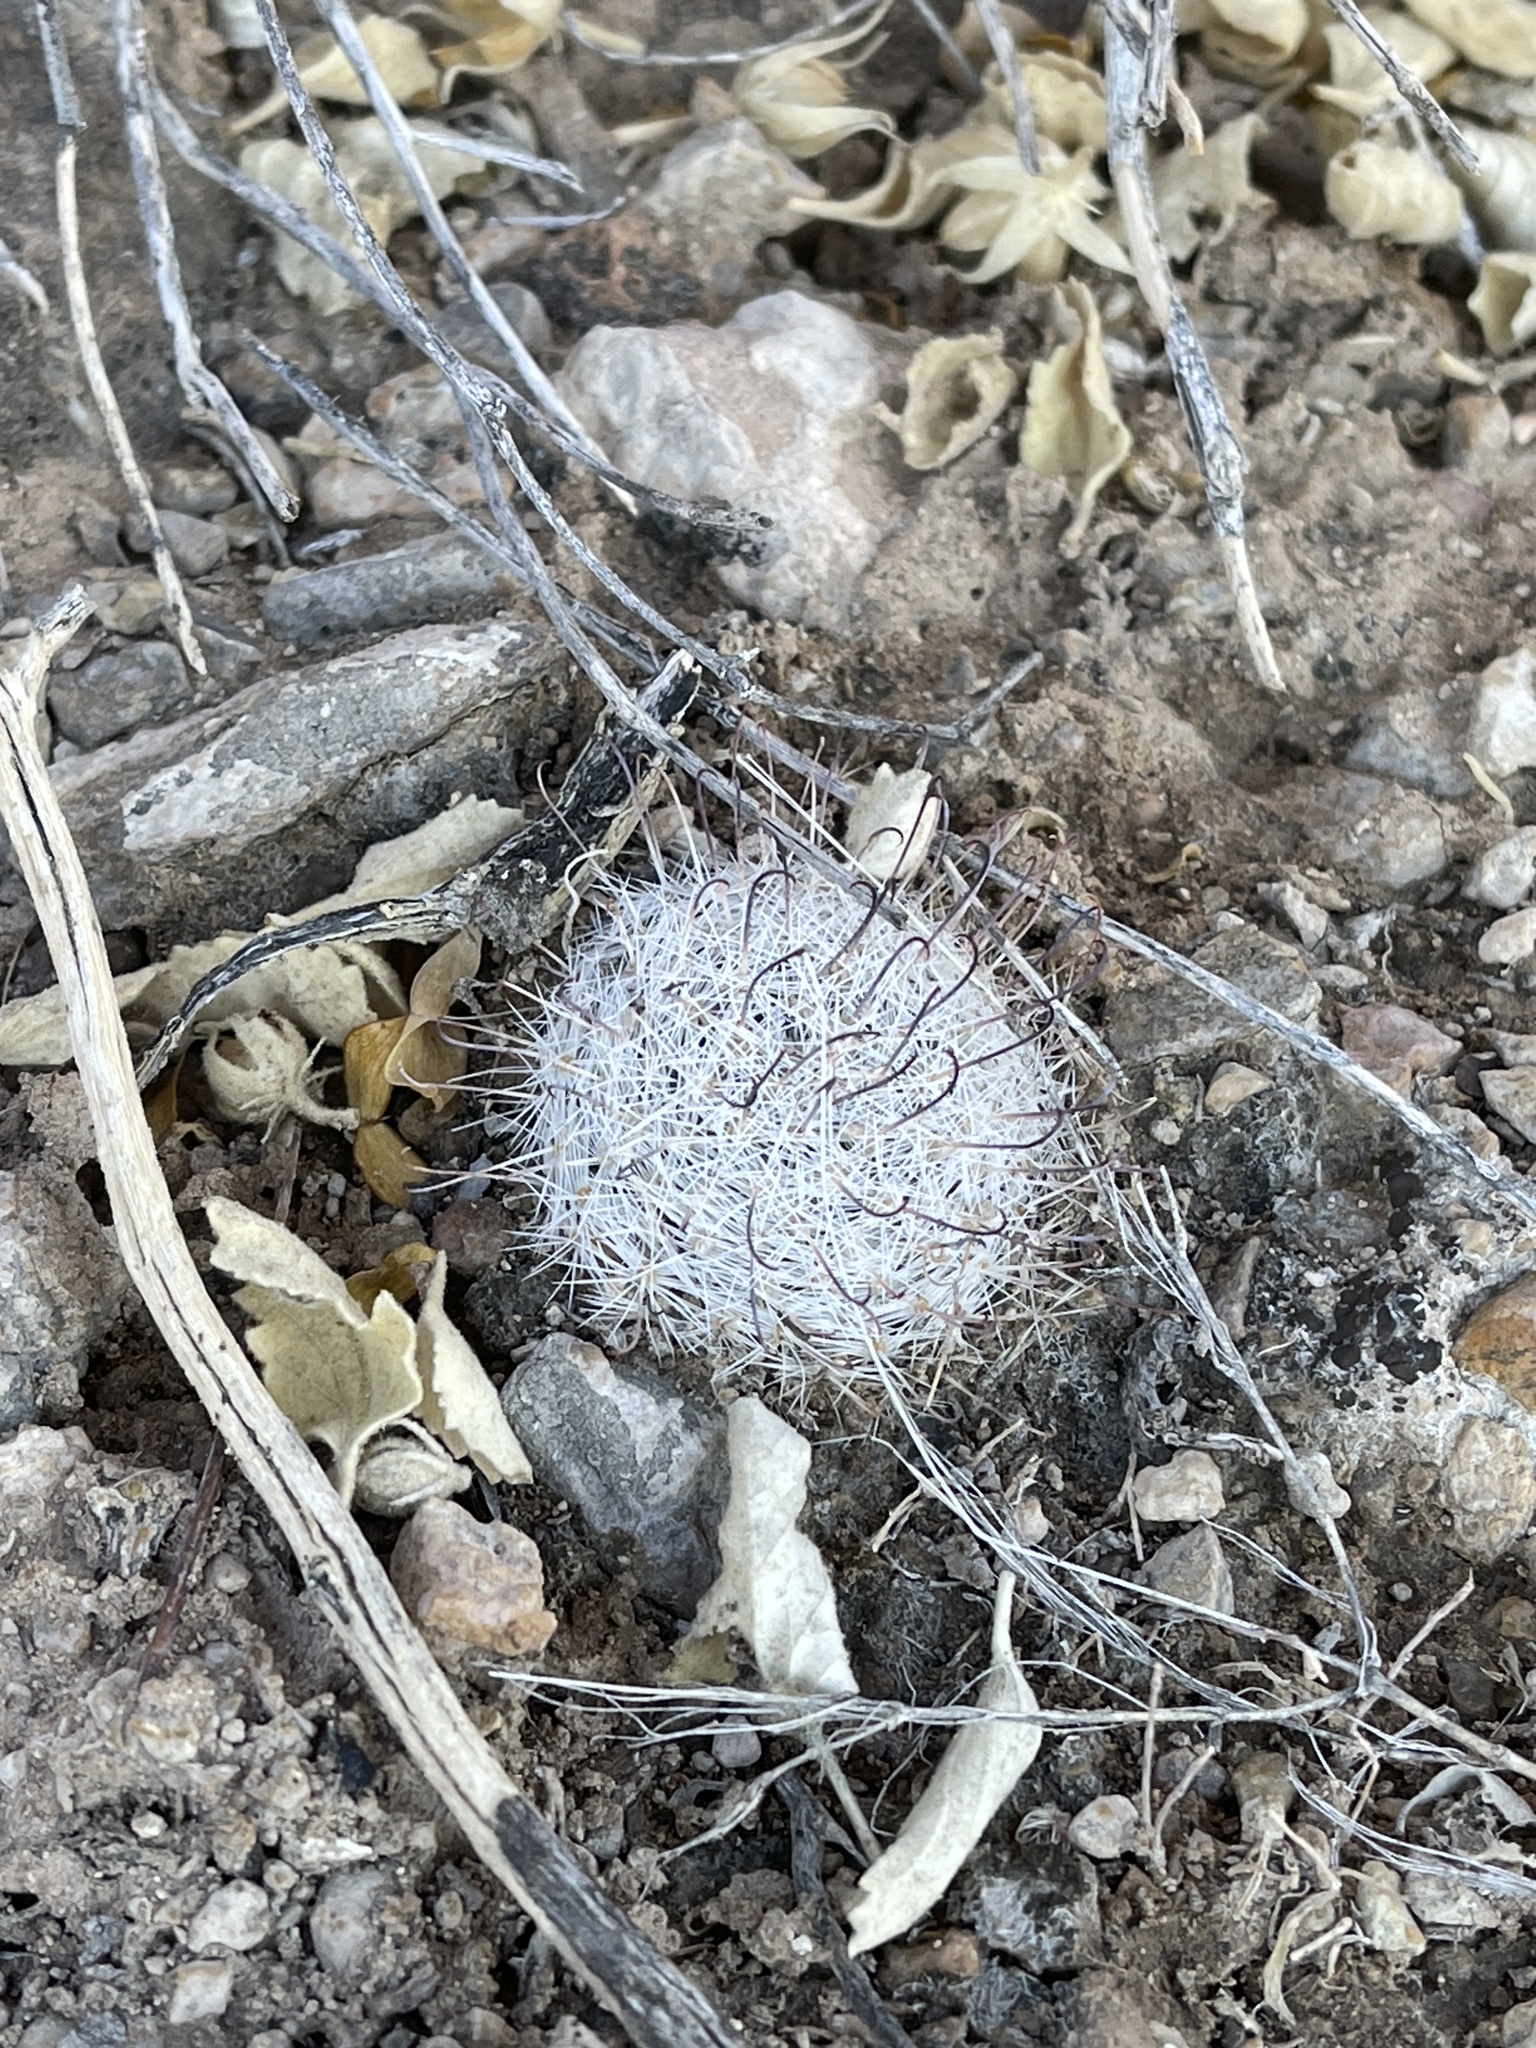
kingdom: Plantae
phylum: Tracheophyta
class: Magnoliopsida
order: Caryophyllales
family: Cactaceae
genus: Cochemiea
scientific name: Cochemiea grahamii
